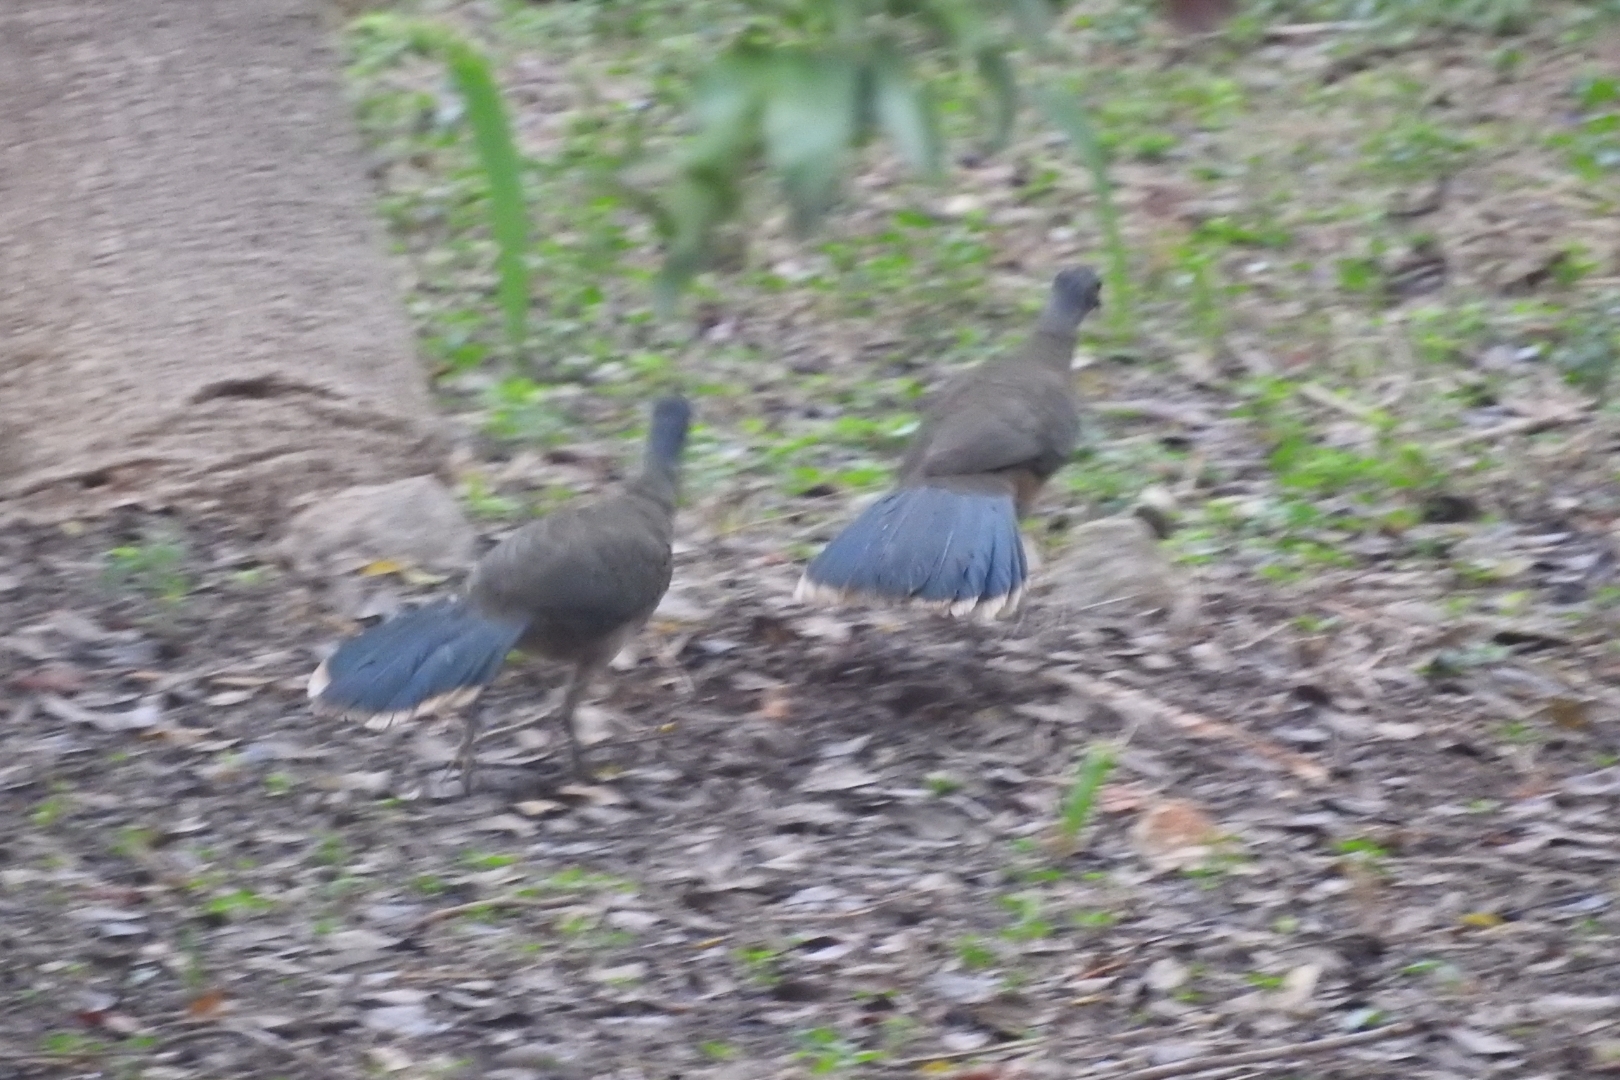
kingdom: Animalia
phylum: Chordata
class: Aves
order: Galliformes
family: Cracidae
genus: Ortalis
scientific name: Ortalis vetula
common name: Plain chachalaca
